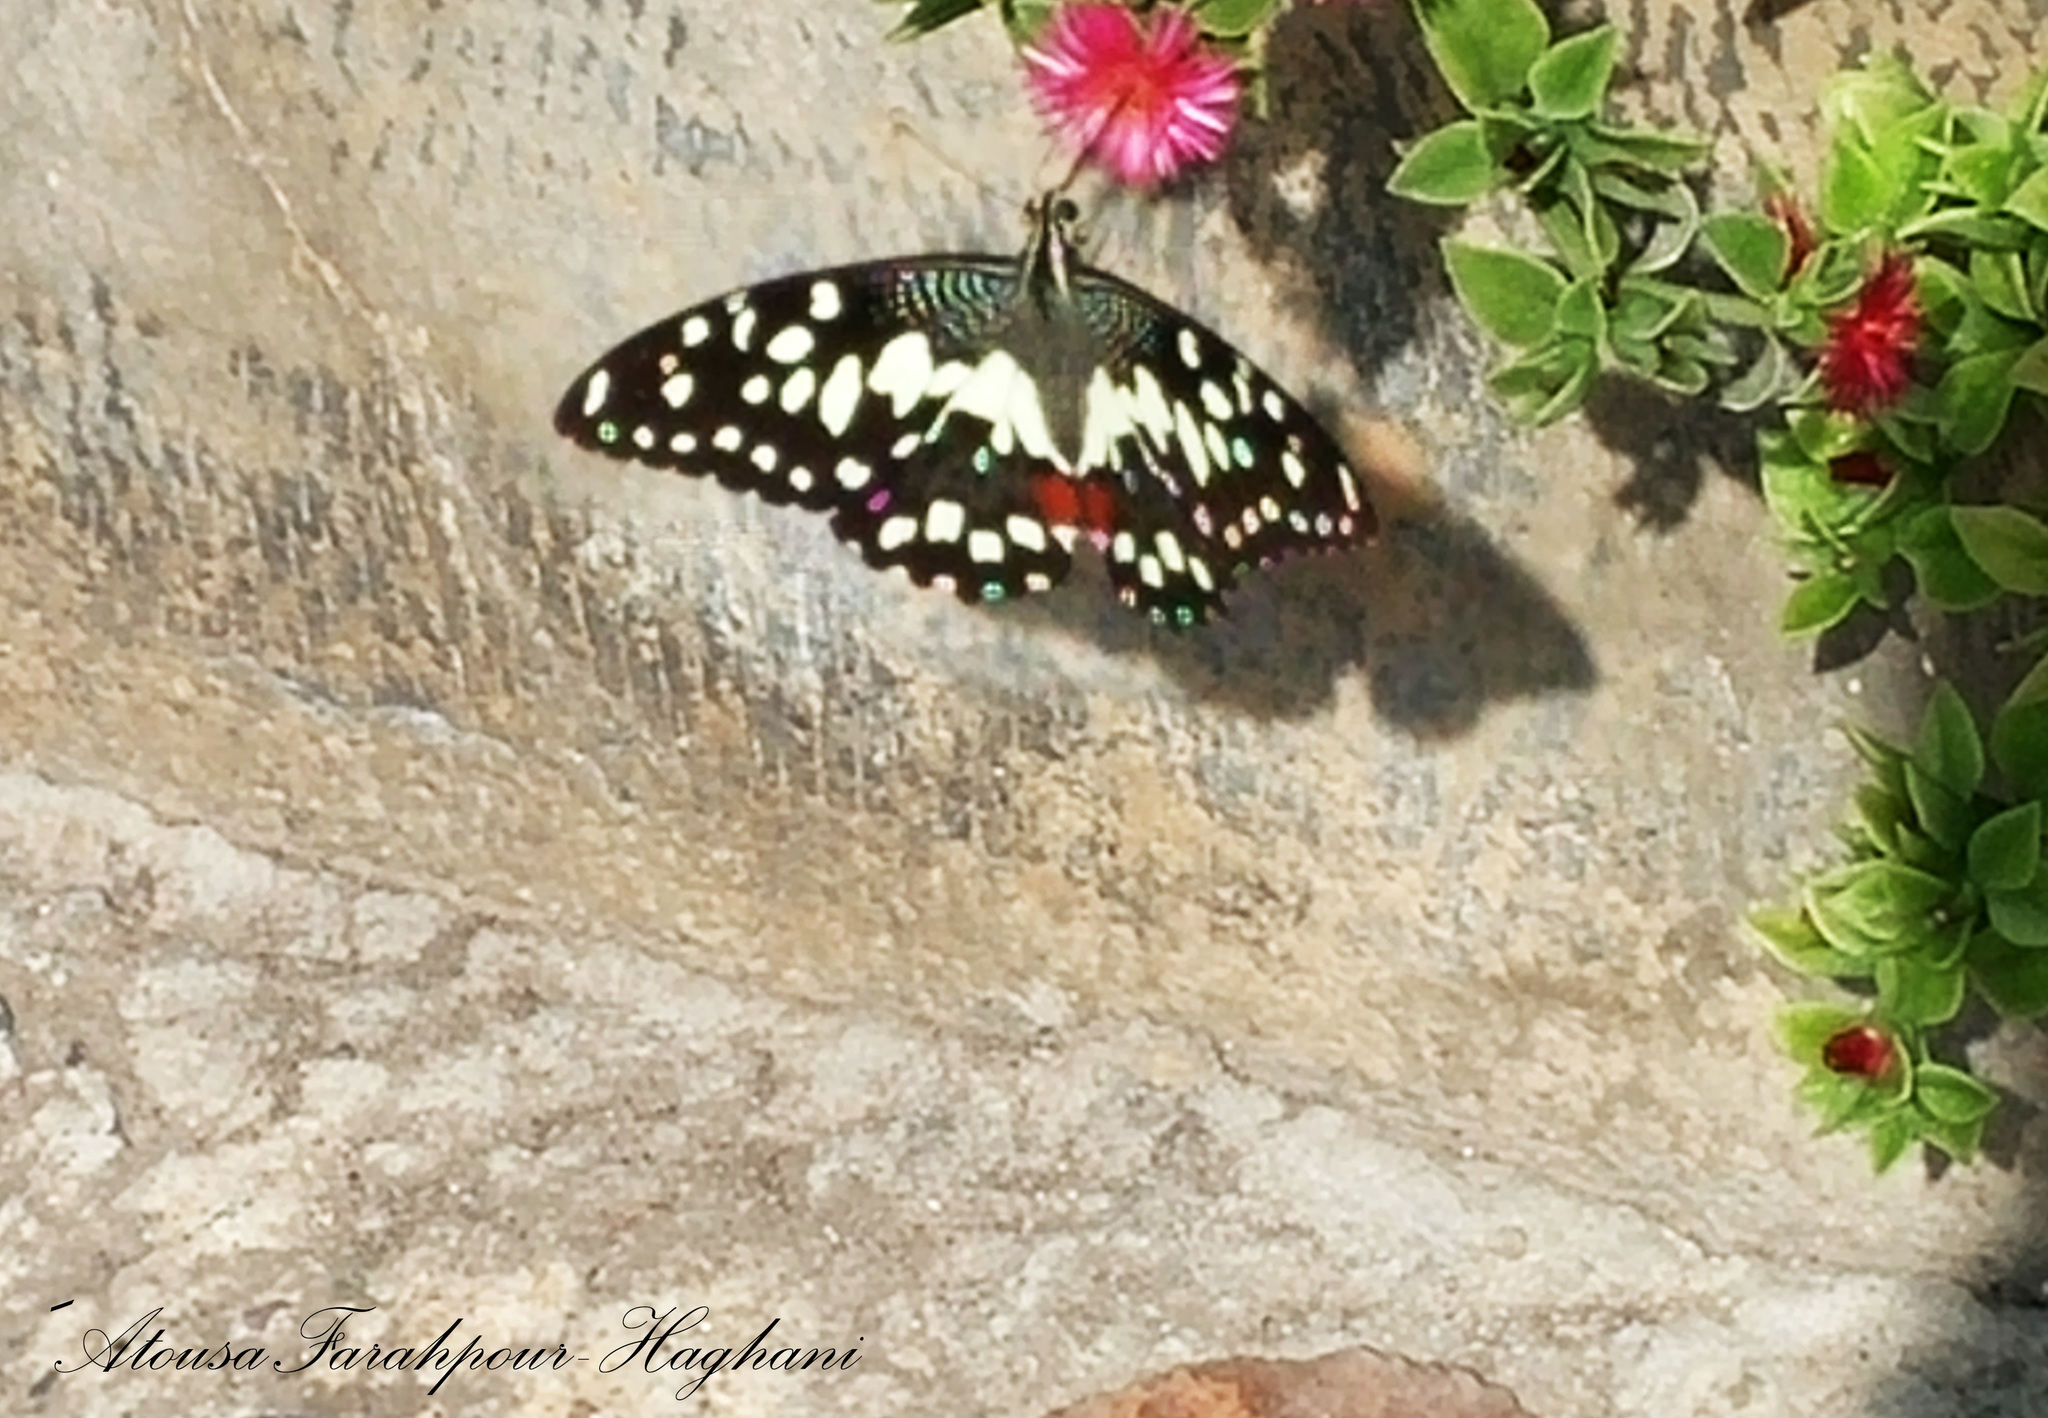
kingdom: Animalia
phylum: Arthropoda
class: Insecta
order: Lepidoptera
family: Papilionidae
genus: Papilio
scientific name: Papilio demoleus
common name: Lime butterfly
